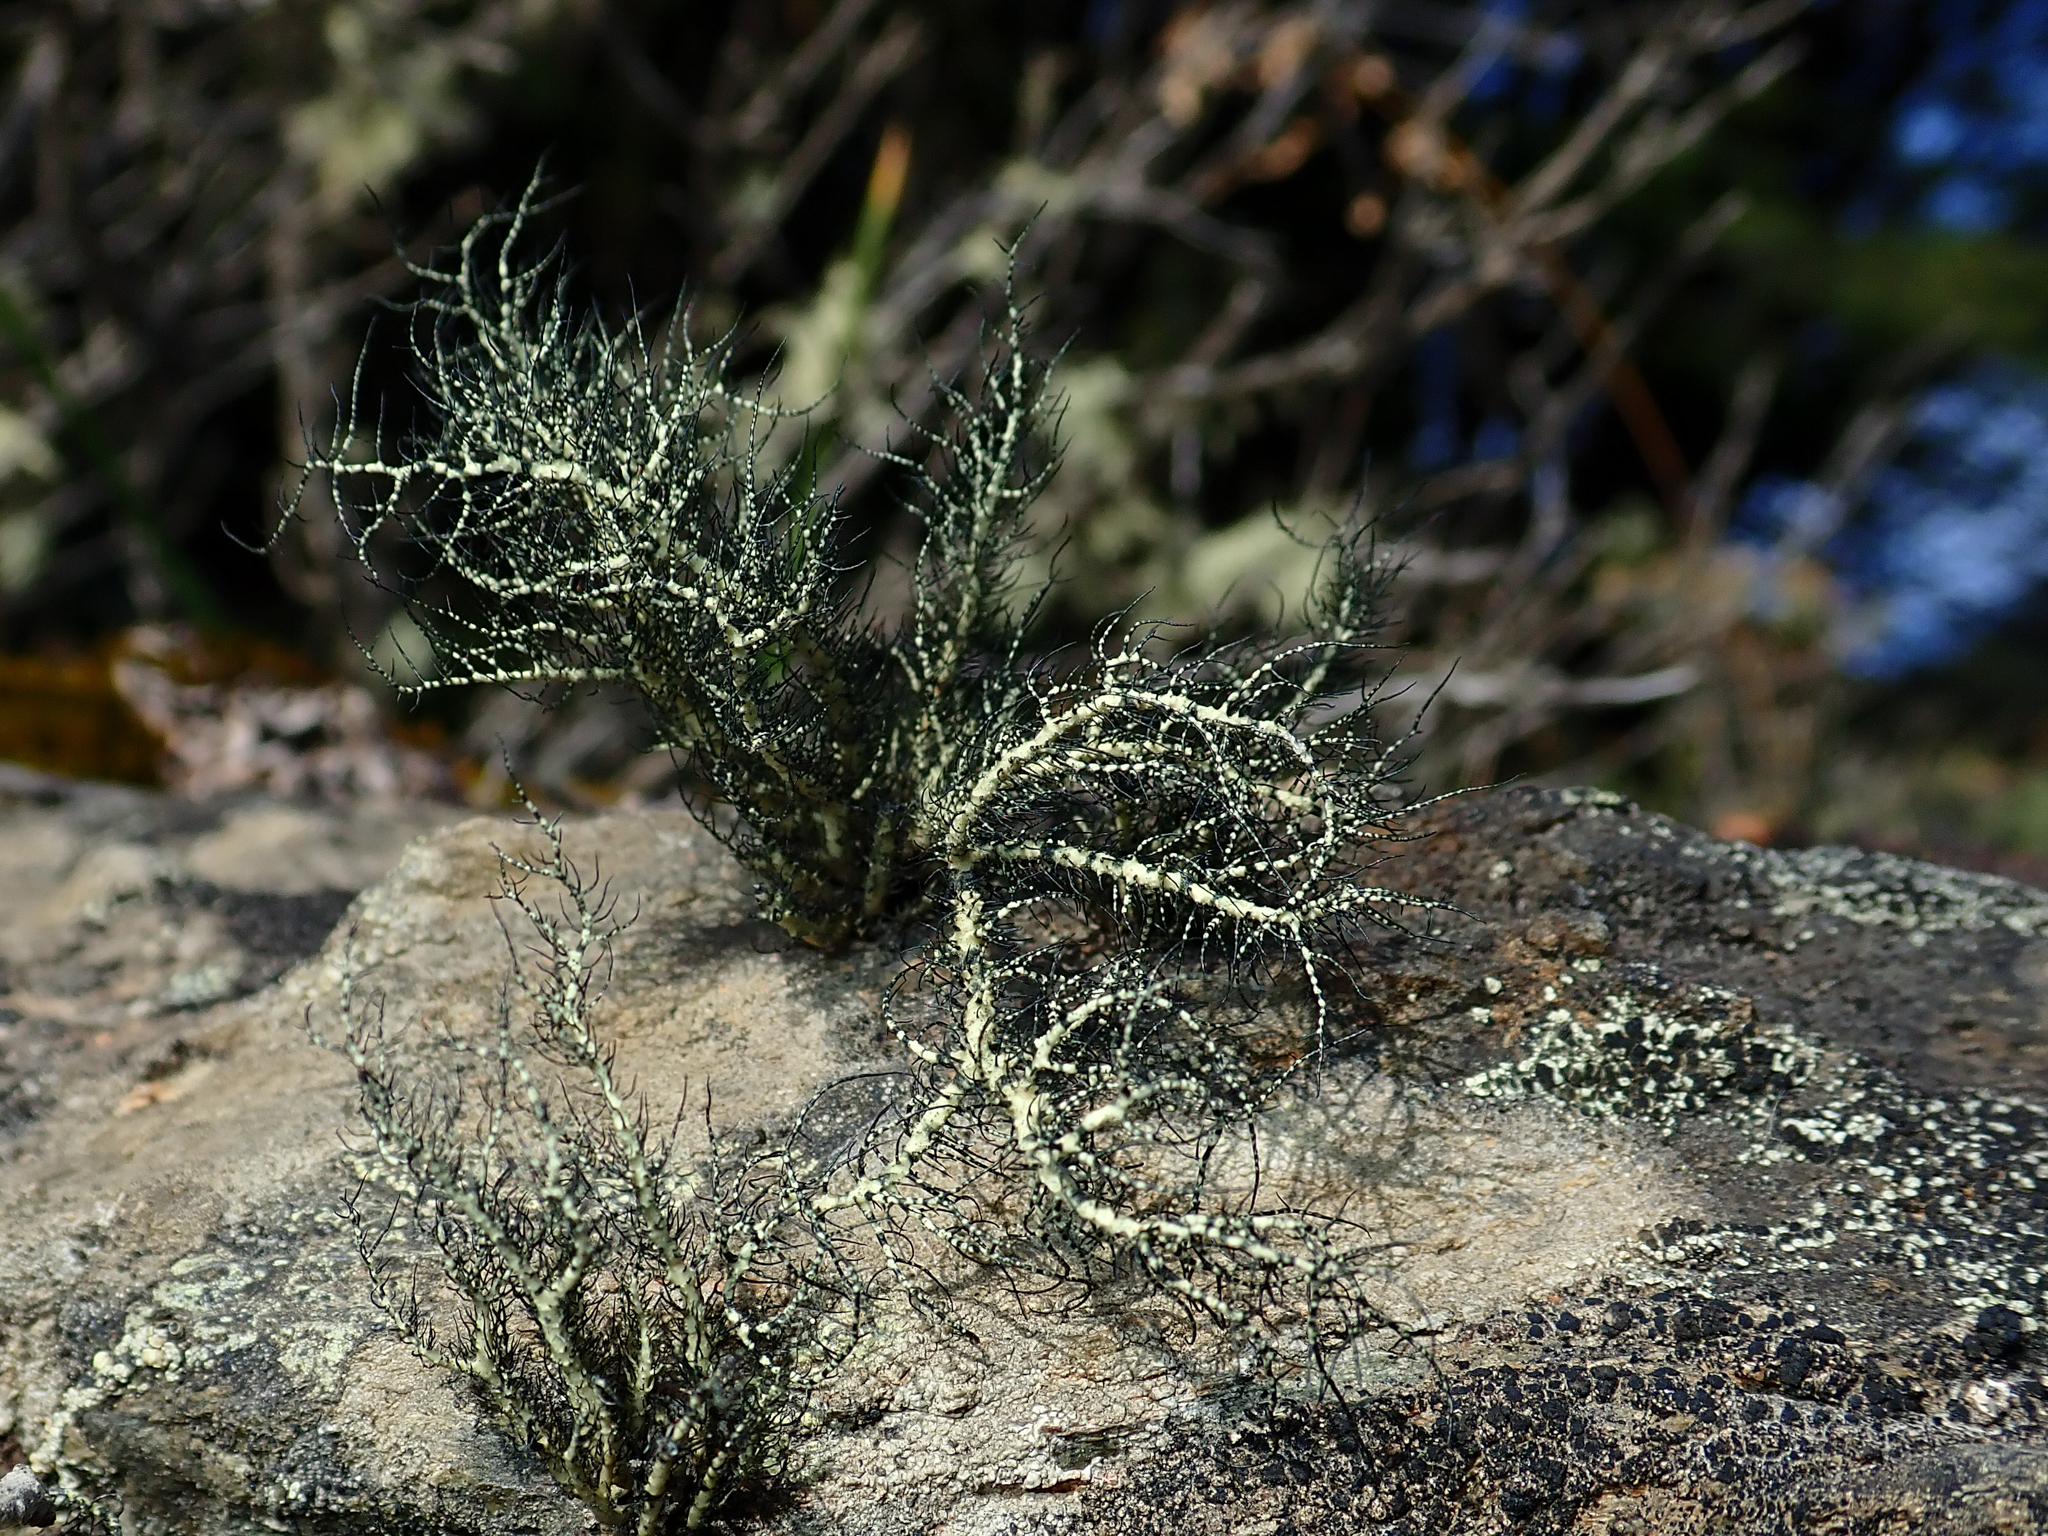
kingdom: Fungi
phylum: Ascomycota
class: Lecanoromycetes
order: Lecanorales
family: Parmeliaceae
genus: Usnea
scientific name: Usnea trachycarpa
